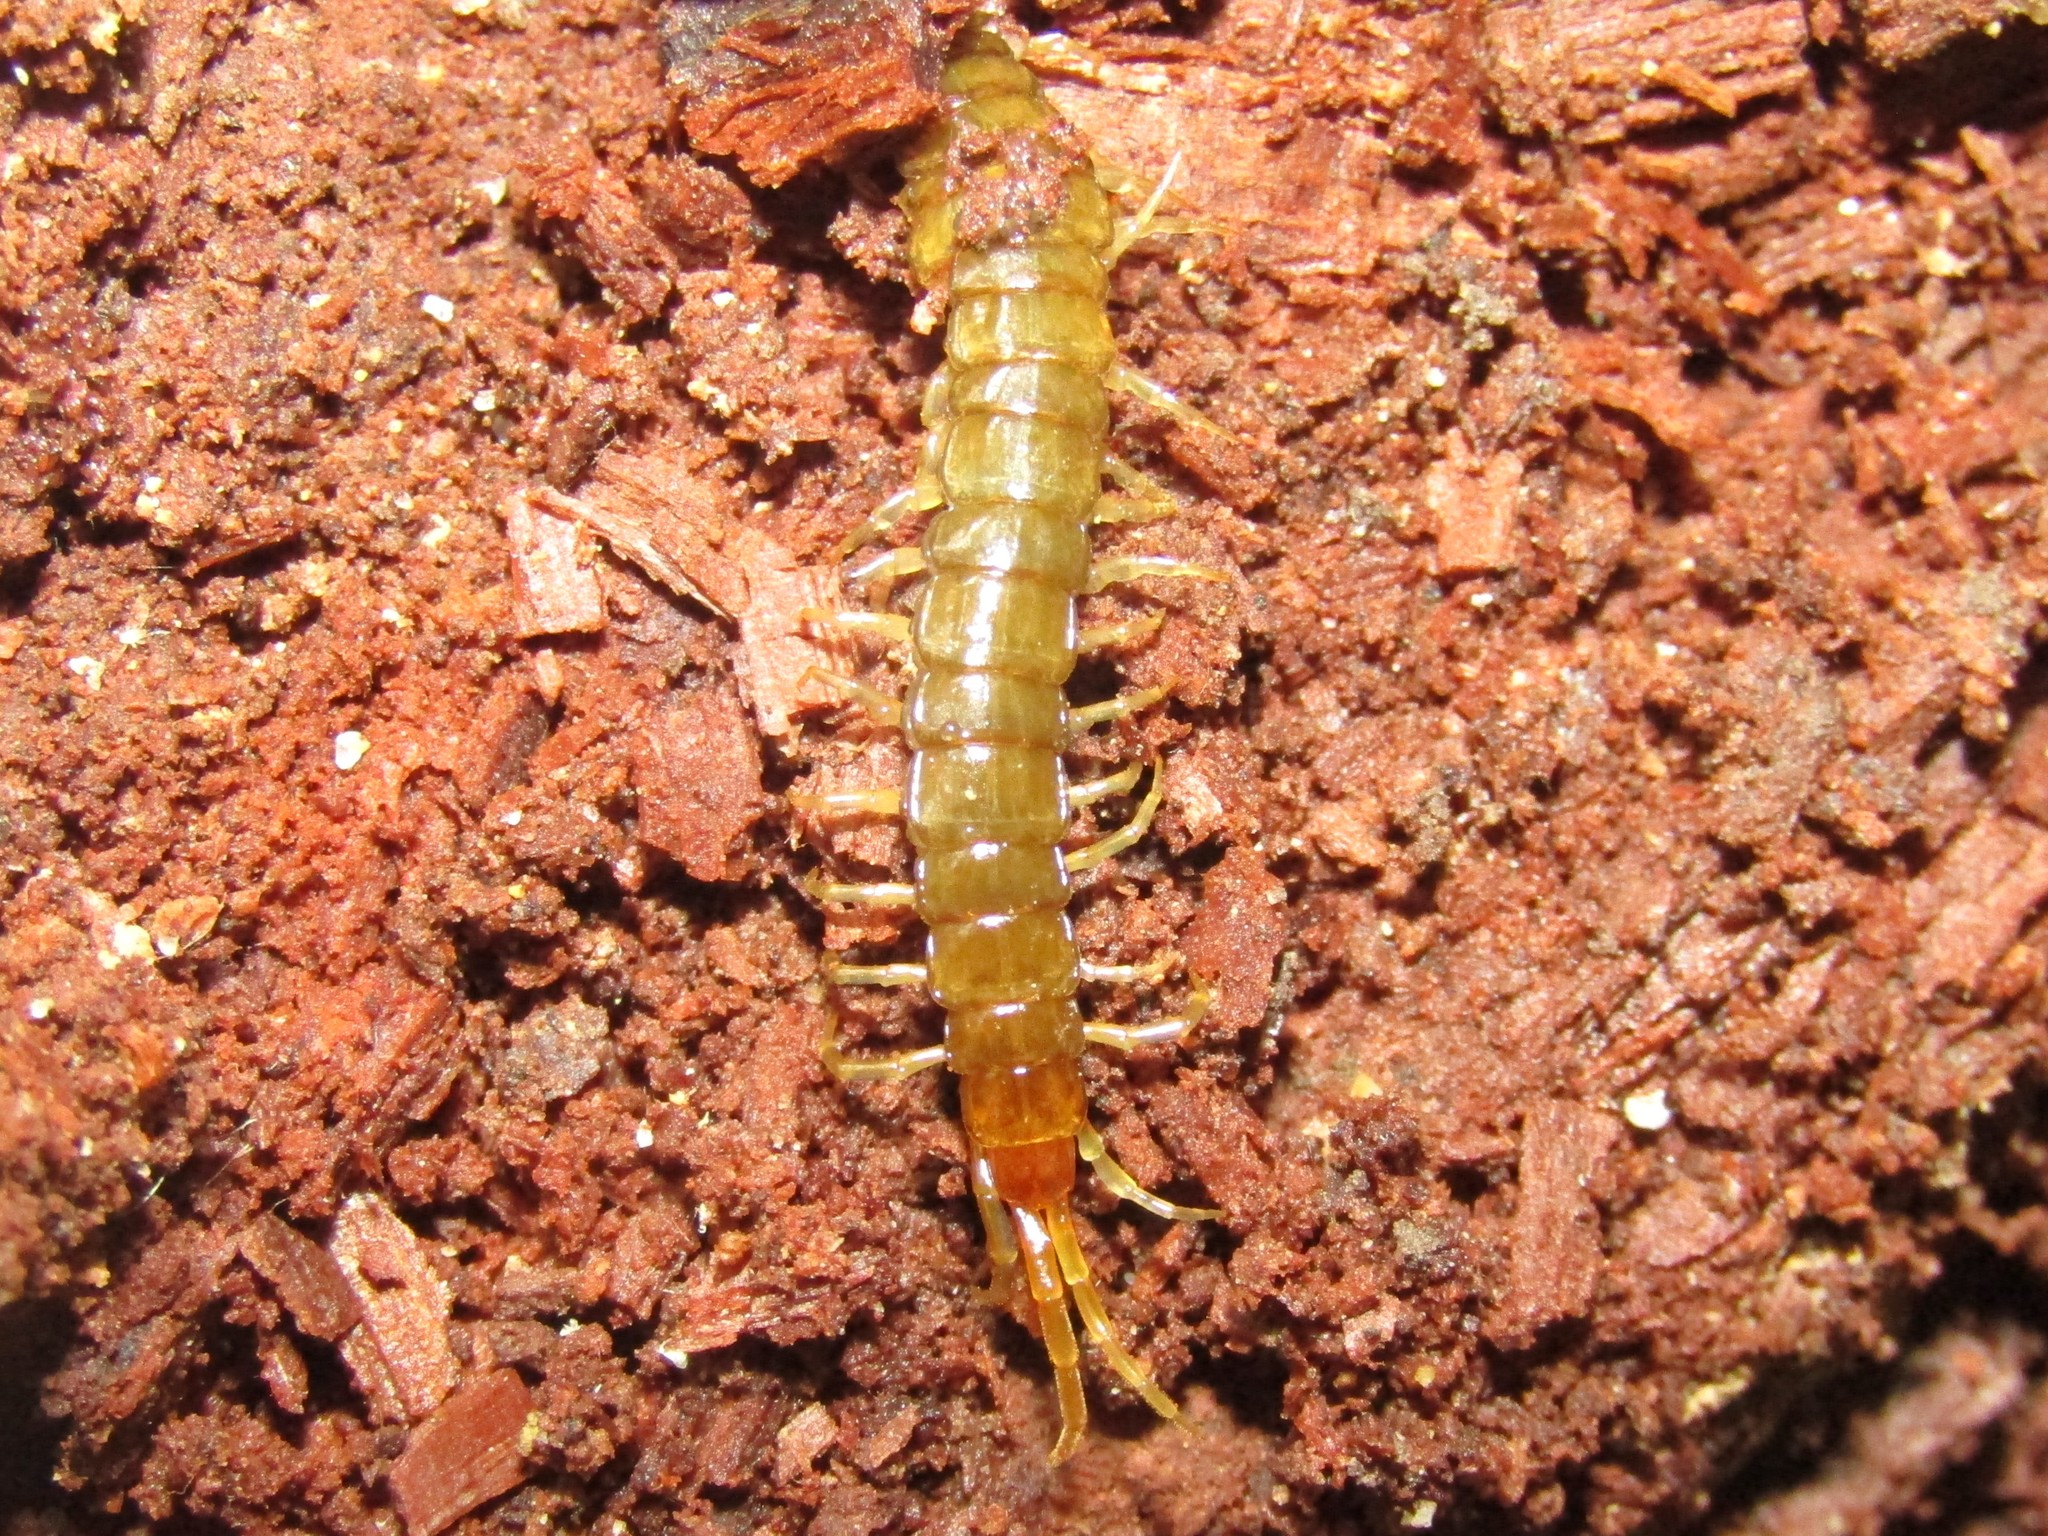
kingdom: Animalia
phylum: Arthropoda
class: Chilopoda
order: Scolopendromorpha
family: Scolopocryptopidae
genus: Scolopocryptops
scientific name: Scolopocryptops nigridius
